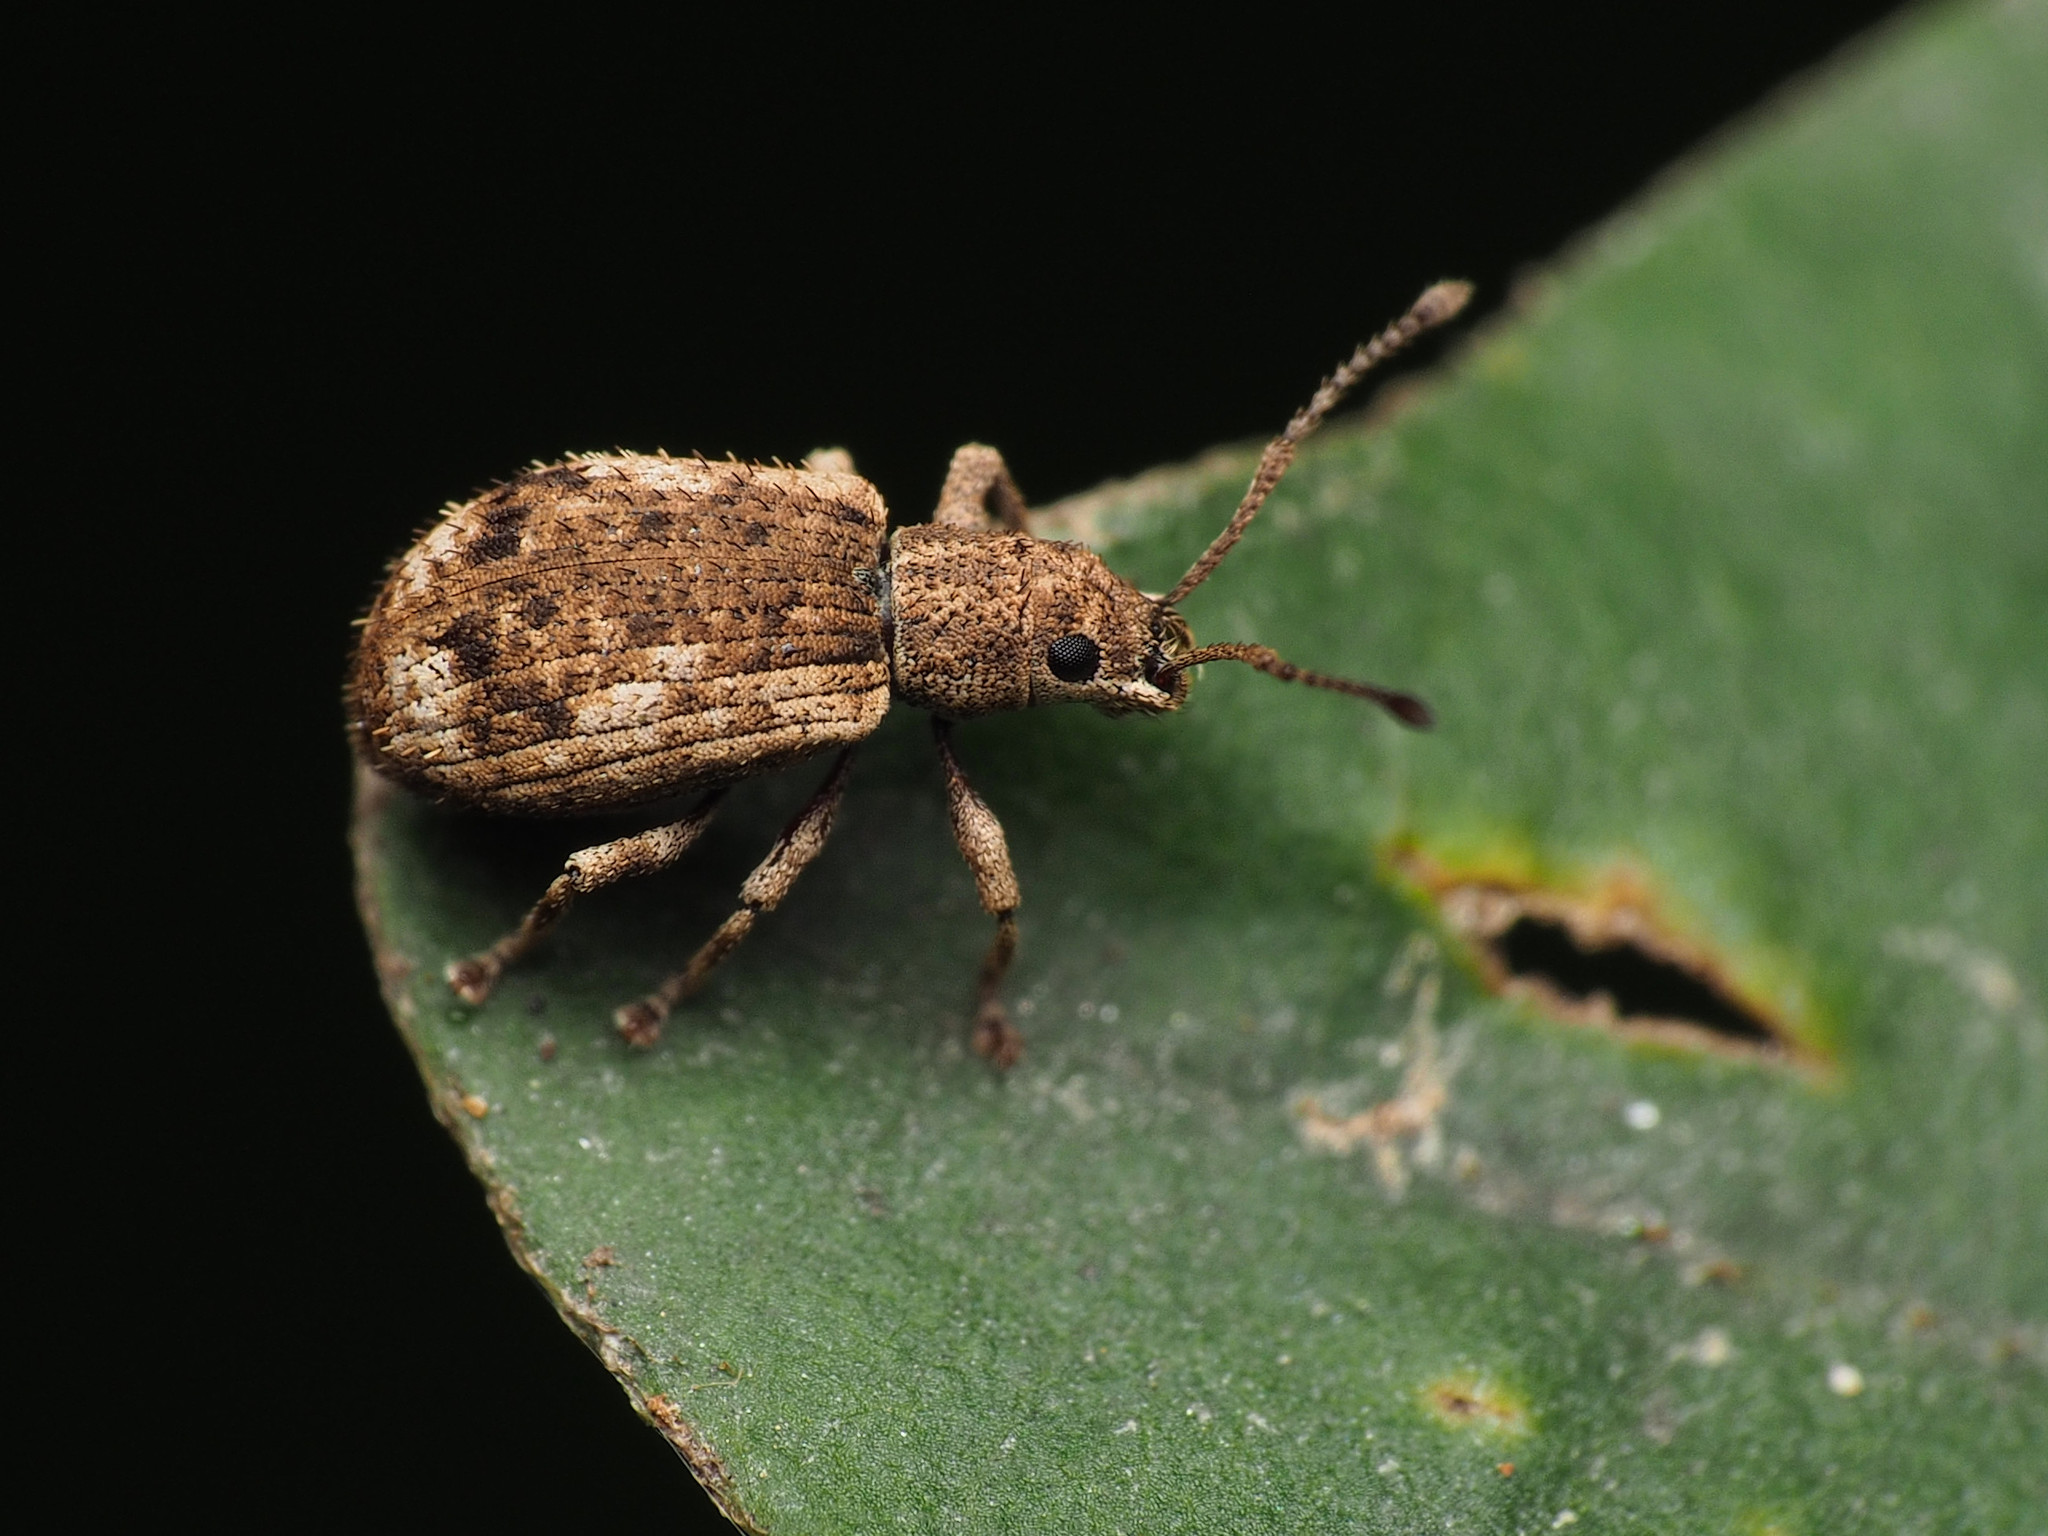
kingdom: Animalia
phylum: Arthropoda
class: Insecta
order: Coleoptera
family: Curculionidae
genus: Pseudoedophrys
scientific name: Pseudoedophrys hilleri
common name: Weevil
